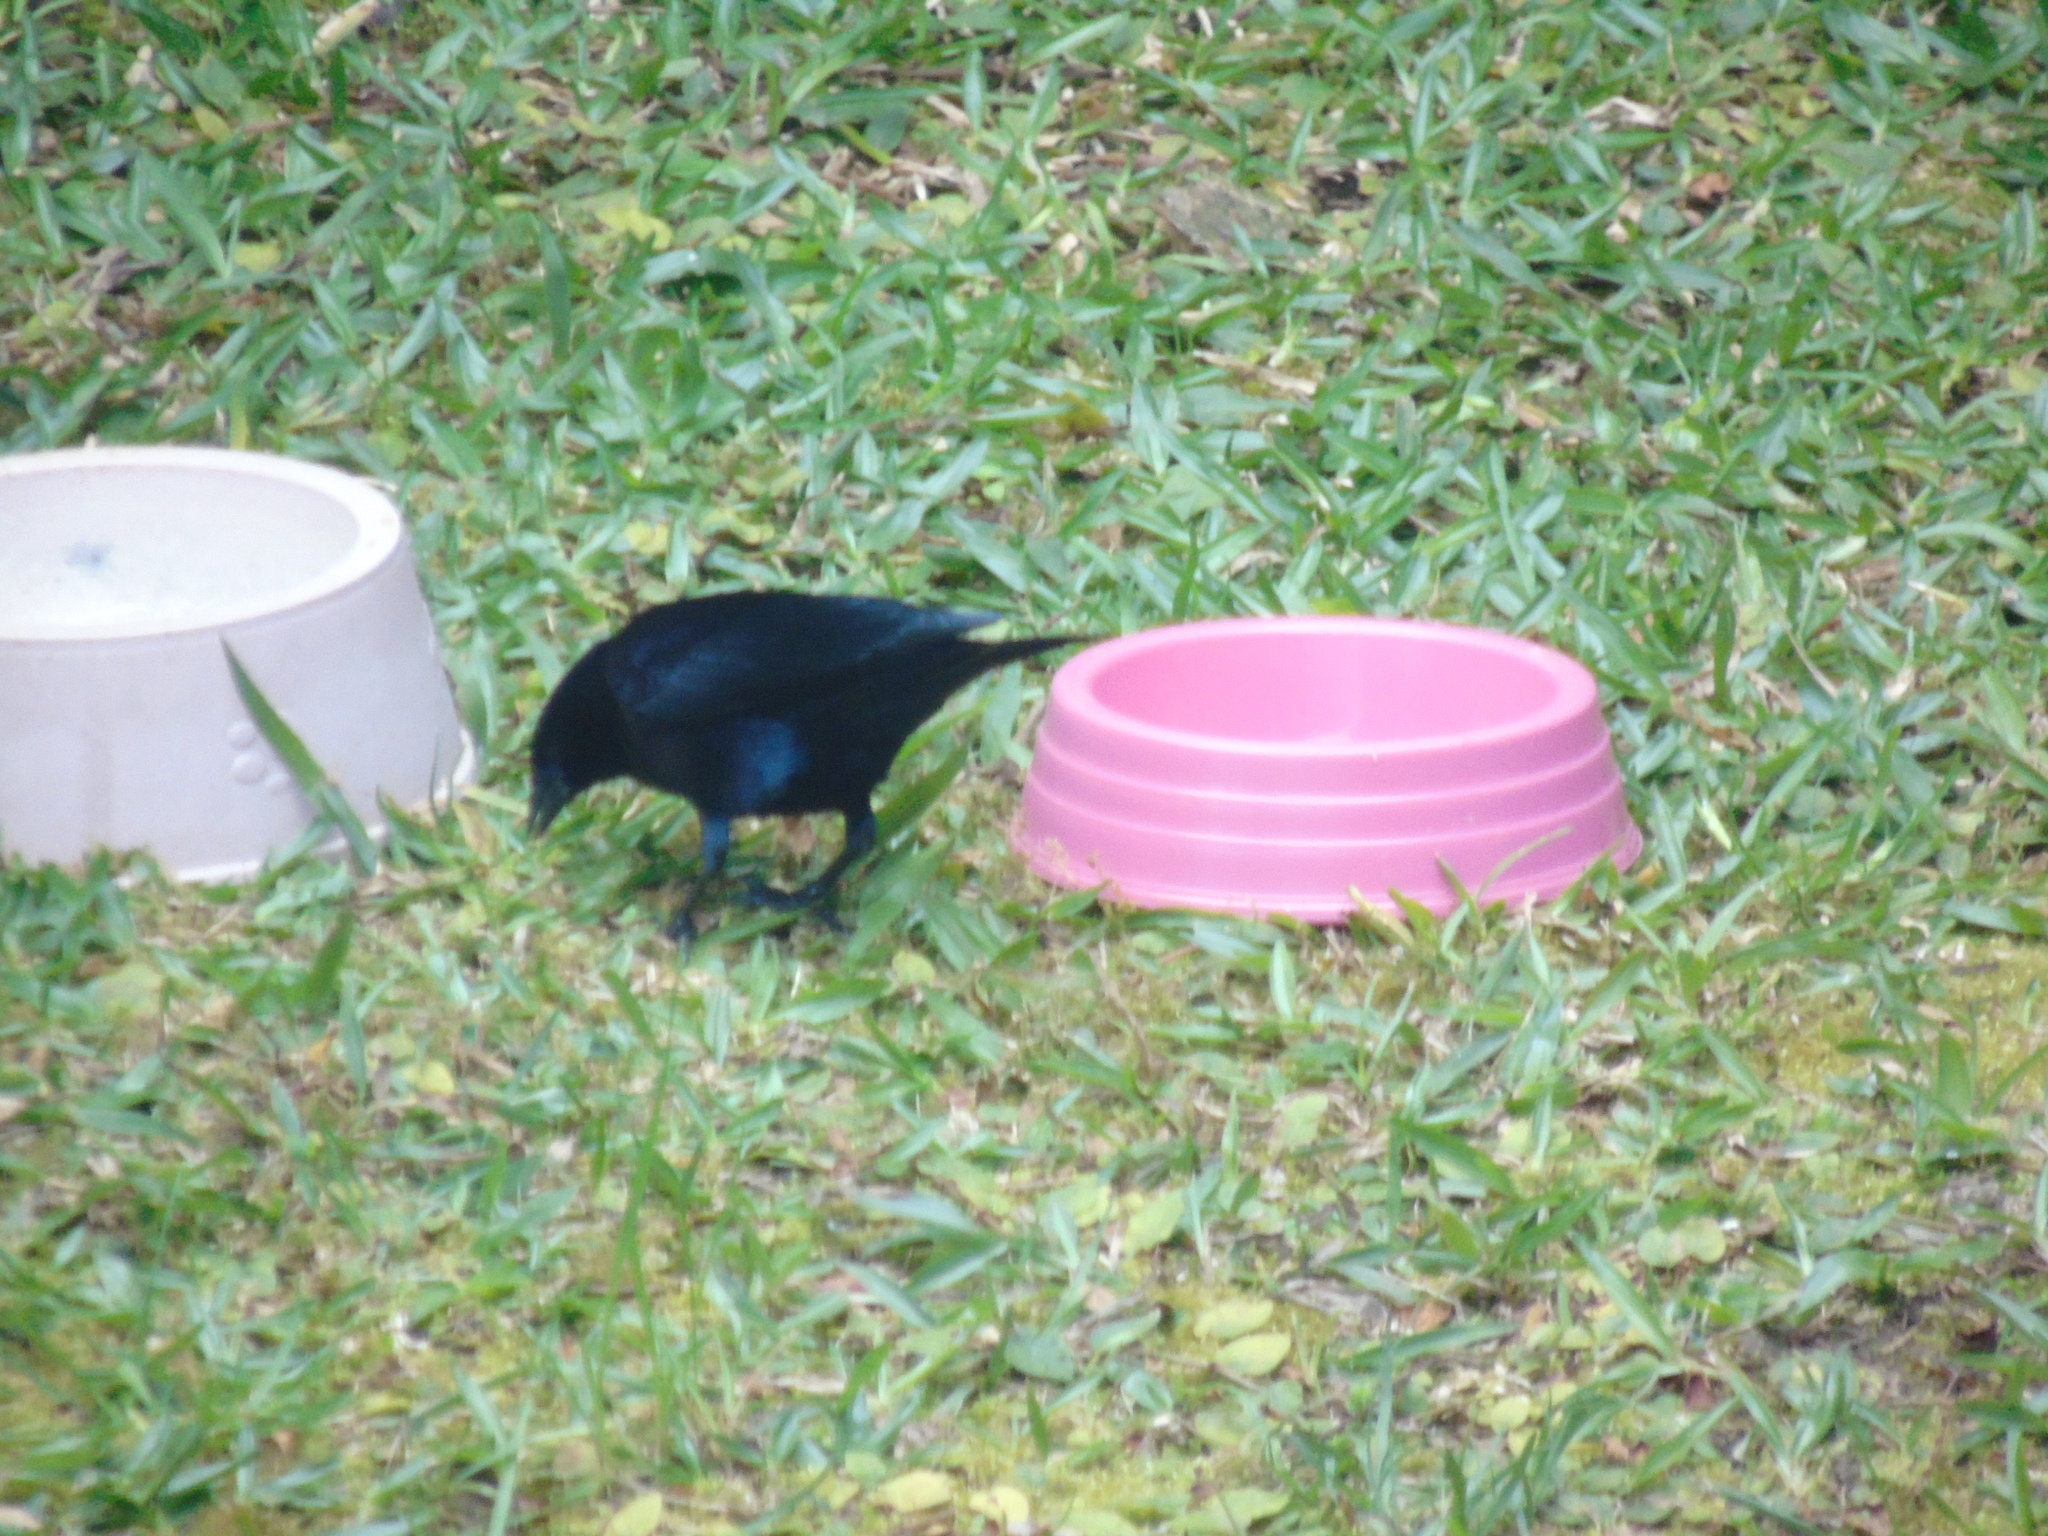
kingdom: Animalia
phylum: Chordata
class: Aves
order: Passeriformes
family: Icteridae
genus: Molothrus
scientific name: Molothrus bonariensis
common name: Shiny cowbird
